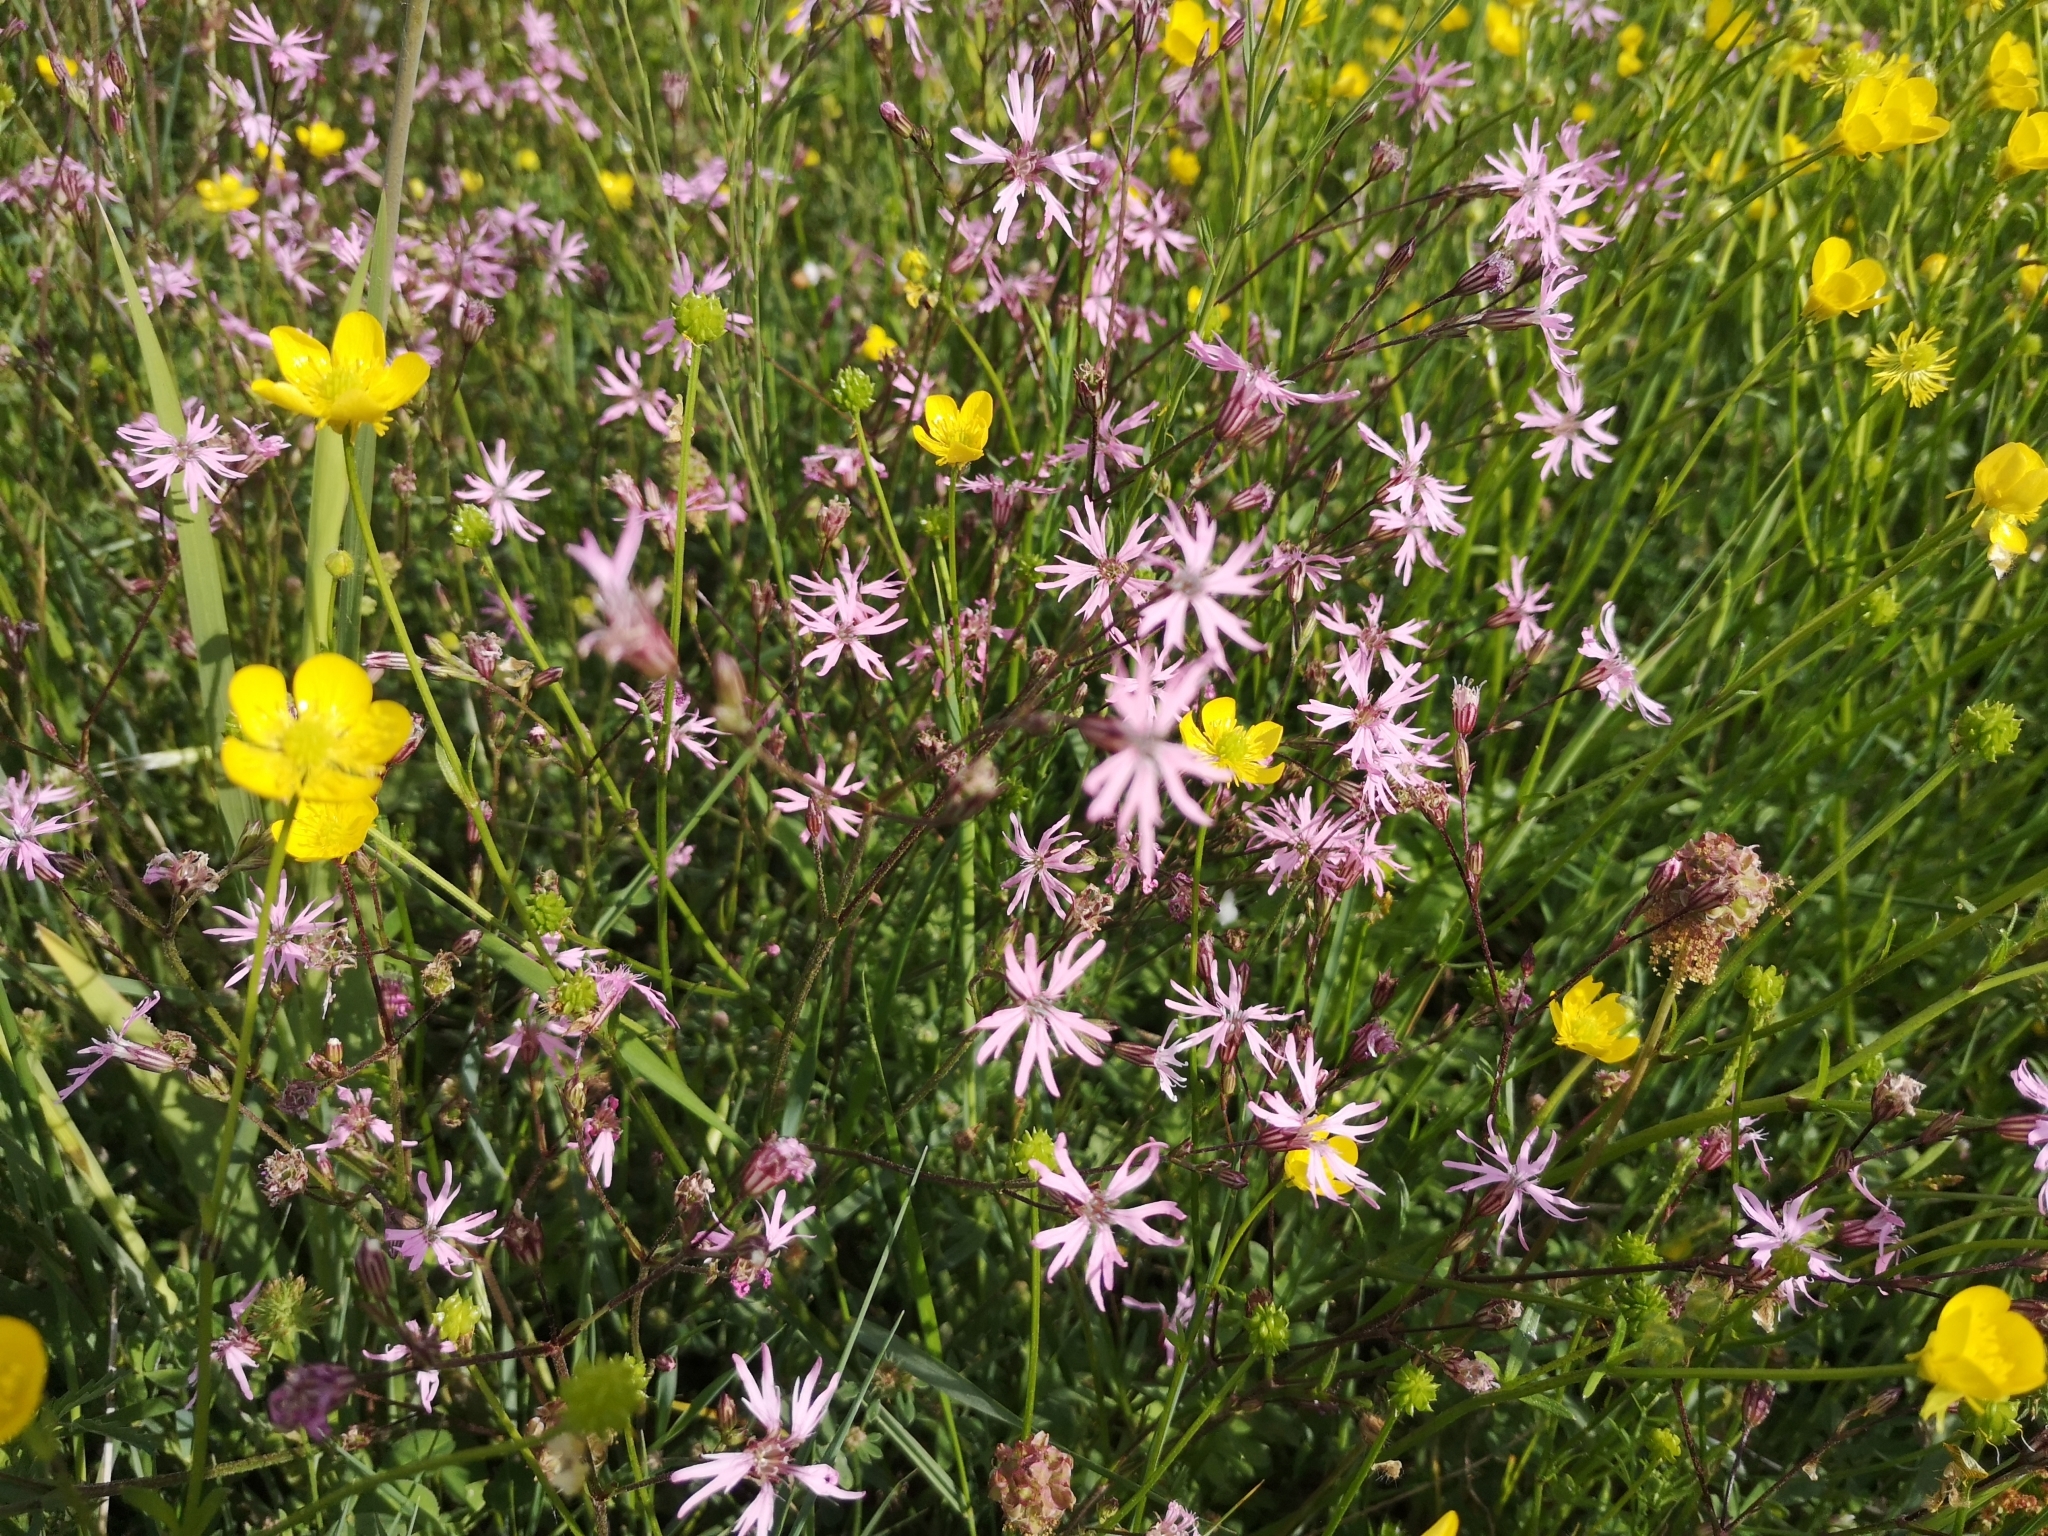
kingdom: Plantae
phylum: Tracheophyta
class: Magnoliopsida
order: Caryophyllales
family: Caryophyllaceae
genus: Silene
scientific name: Silene flos-cuculi
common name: Ragged-robin
